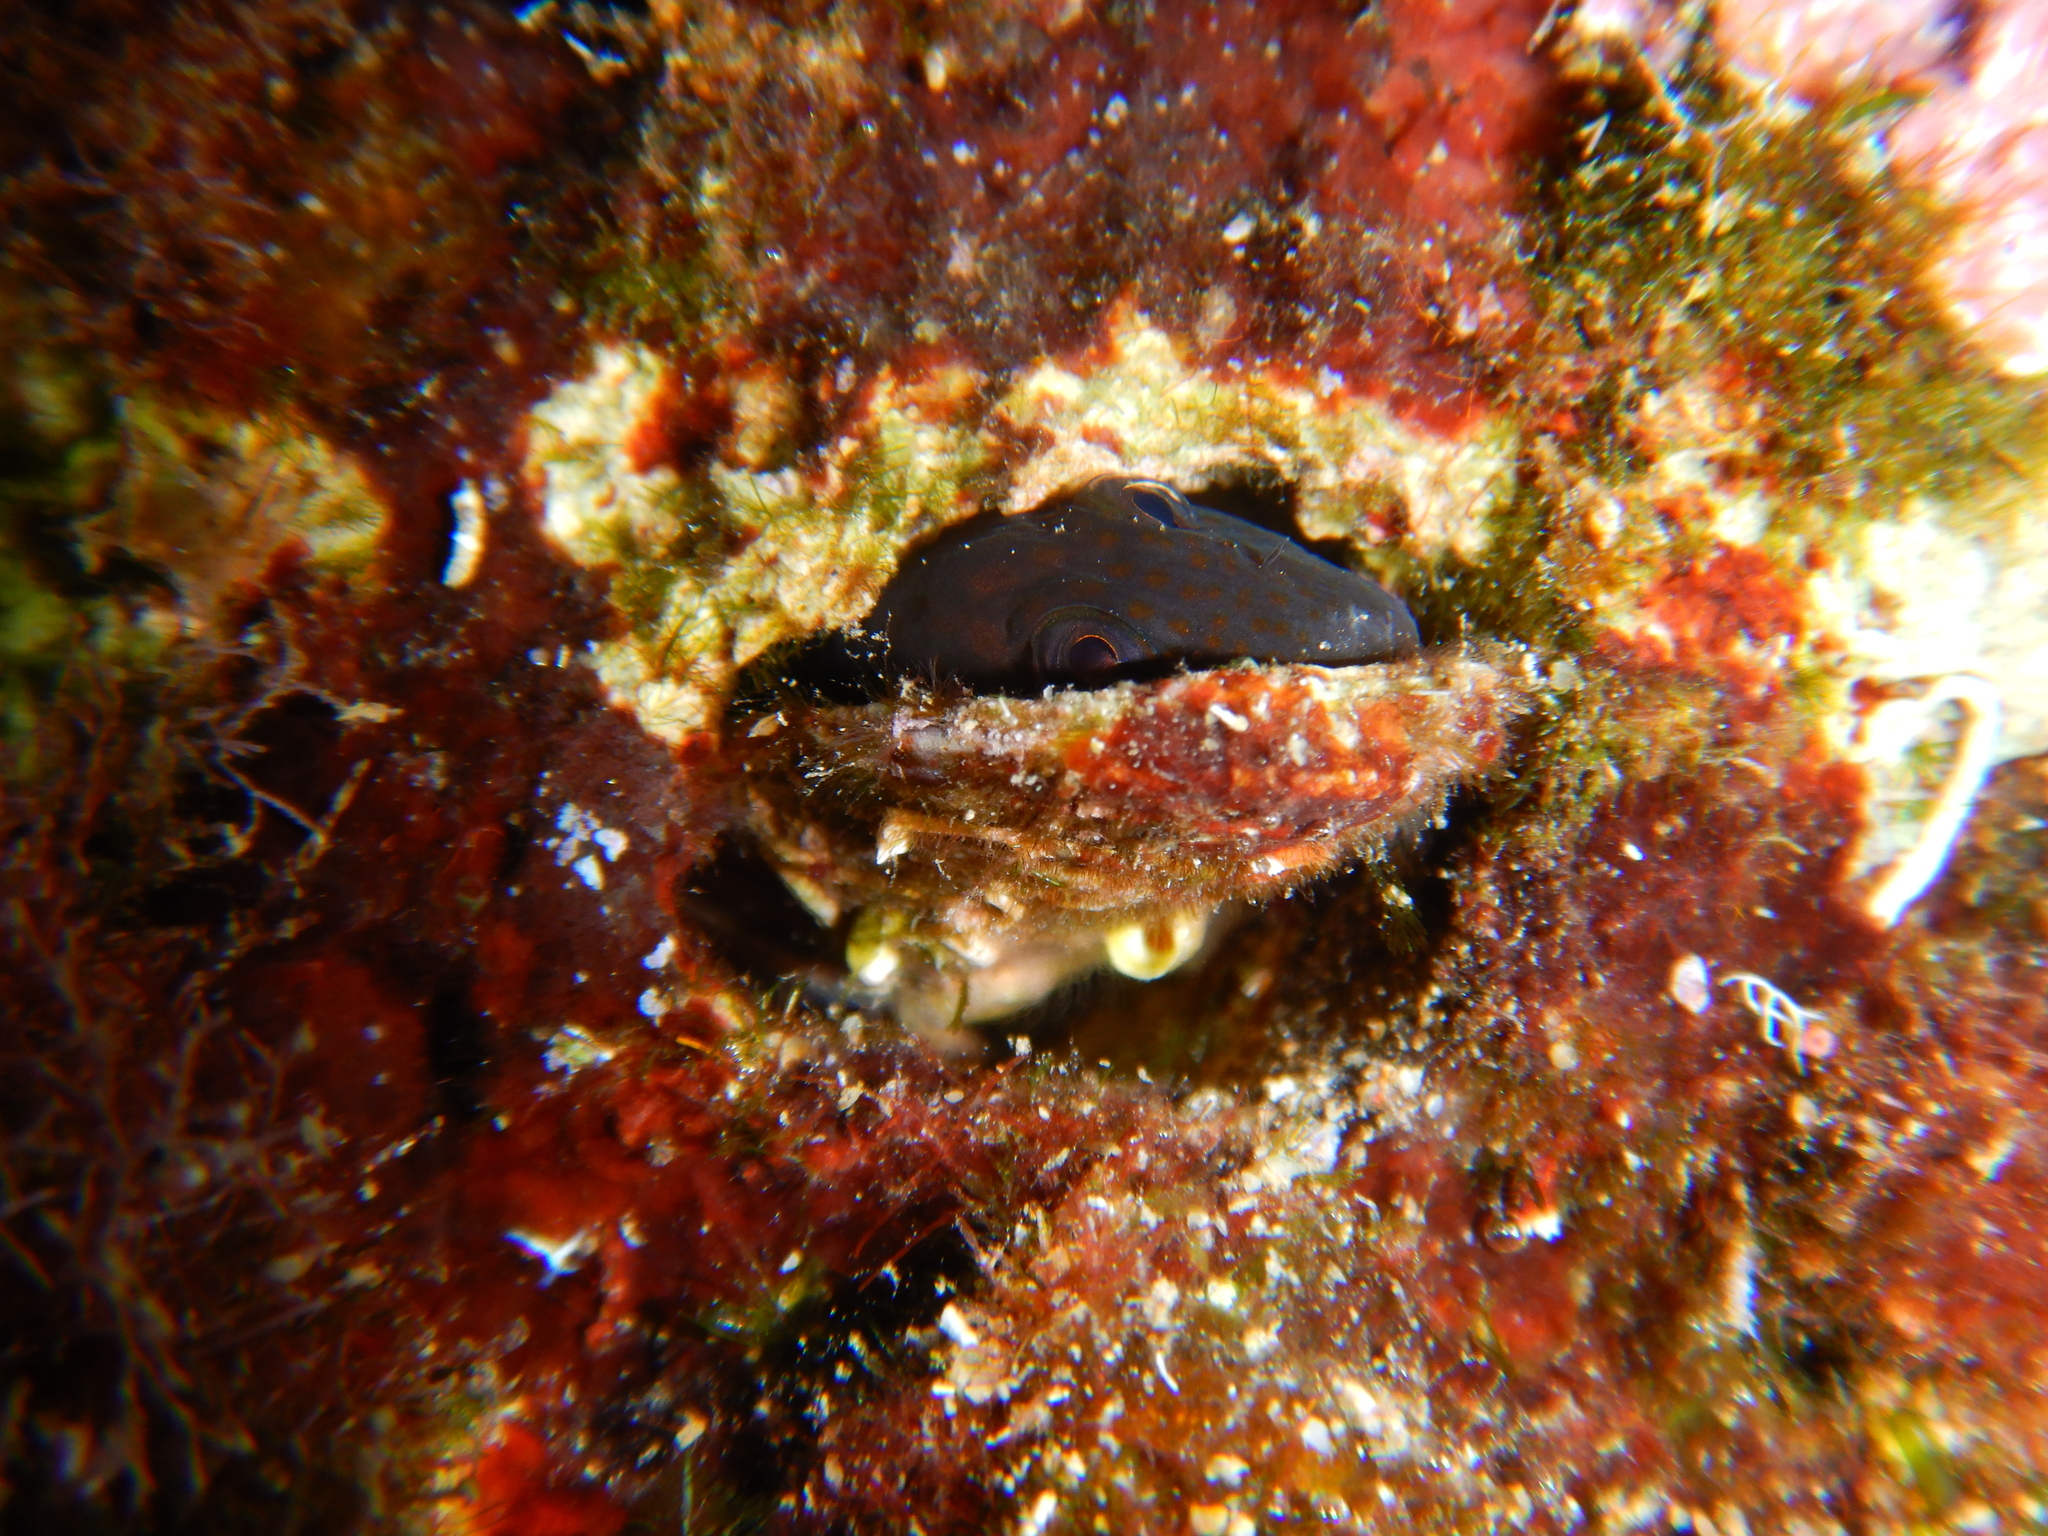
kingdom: Animalia
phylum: Chordata
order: Perciformes
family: Blenniidae
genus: Microlipophrys
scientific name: Microlipophrys canevae
